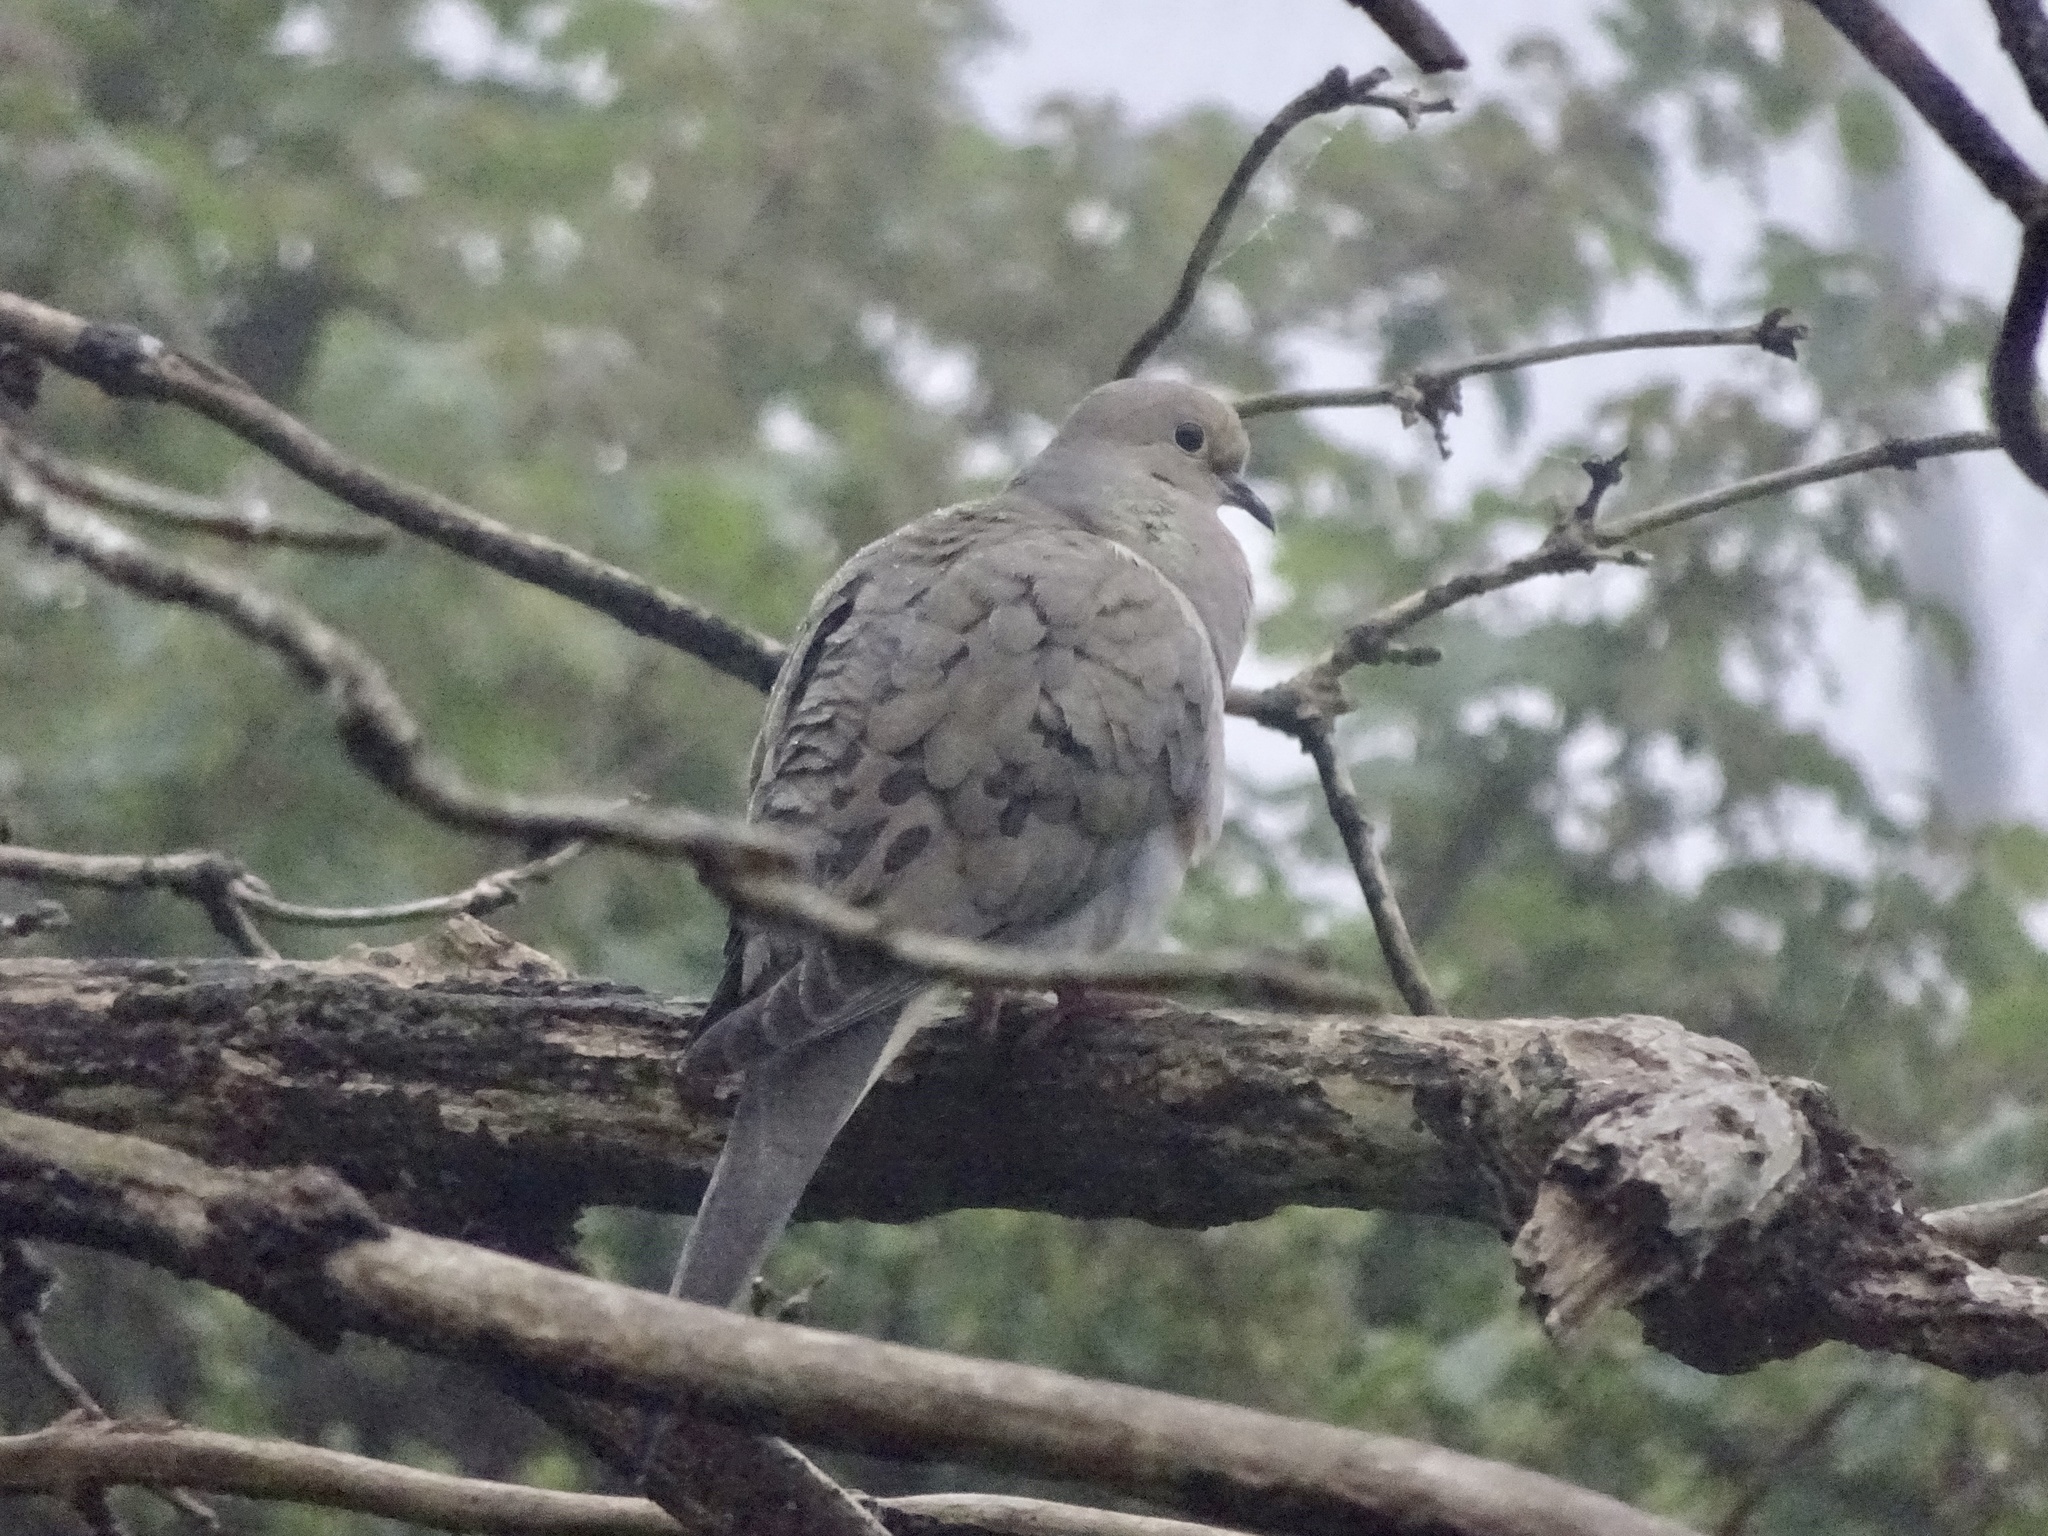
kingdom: Animalia
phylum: Chordata
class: Aves
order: Columbiformes
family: Columbidae
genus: Zenaida
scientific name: Zenaida macroura
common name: Mourning dove
